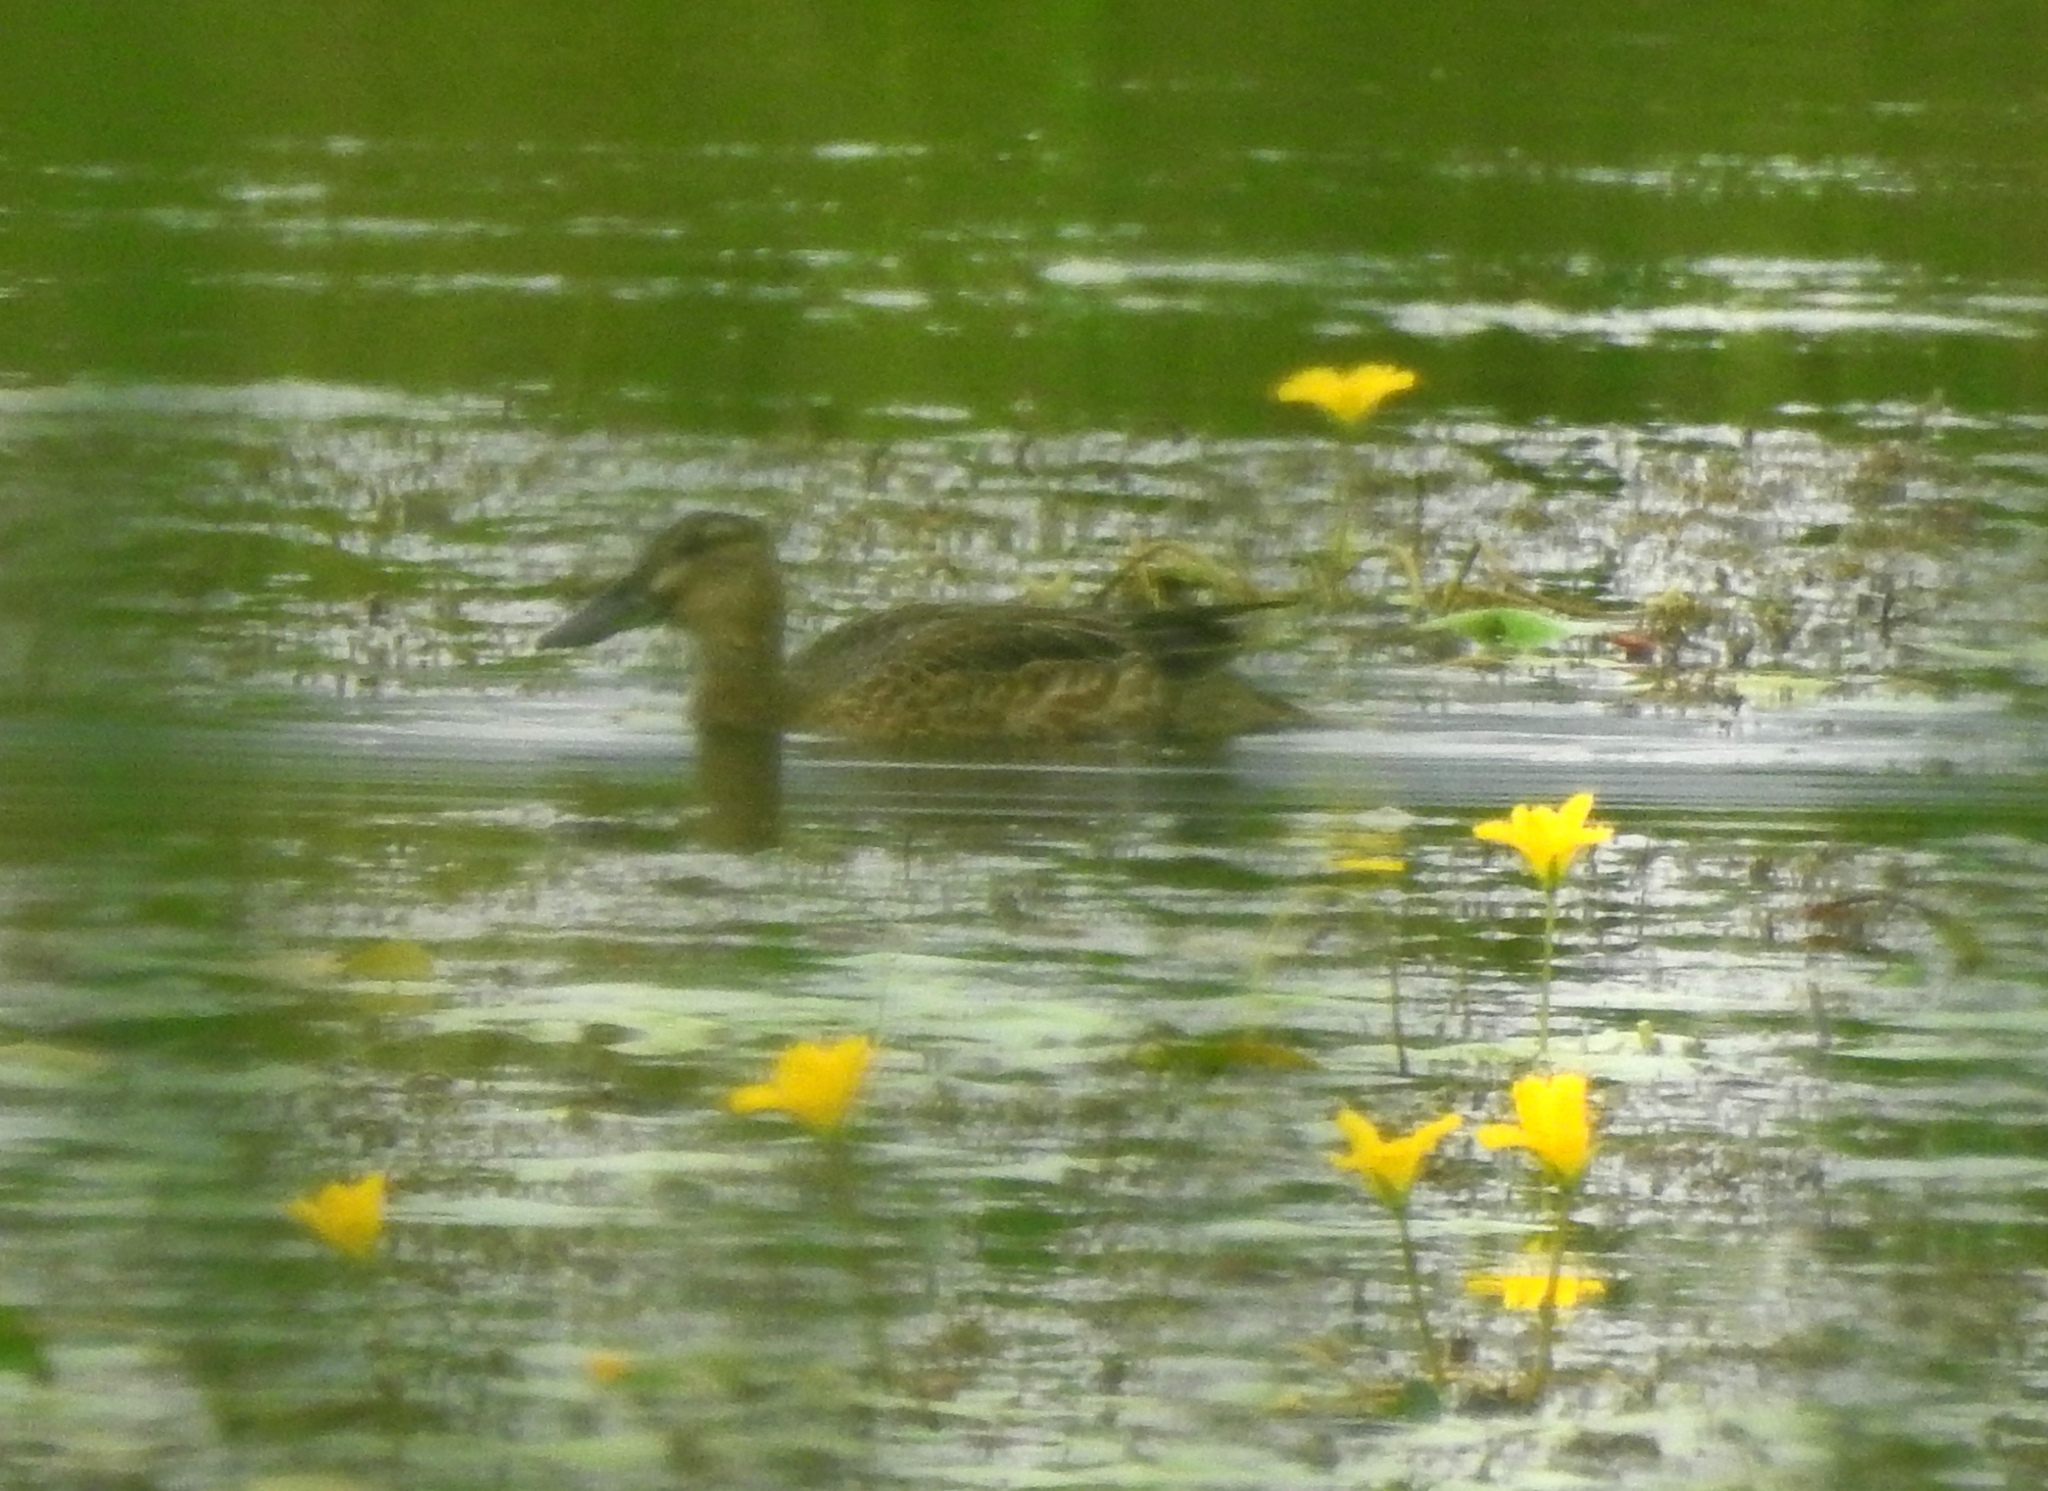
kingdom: Animalia
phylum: Chordata
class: Aves
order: Anseriformes
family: Anatidae
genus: Spatula
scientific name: Spatula querquedula
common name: Garganey
